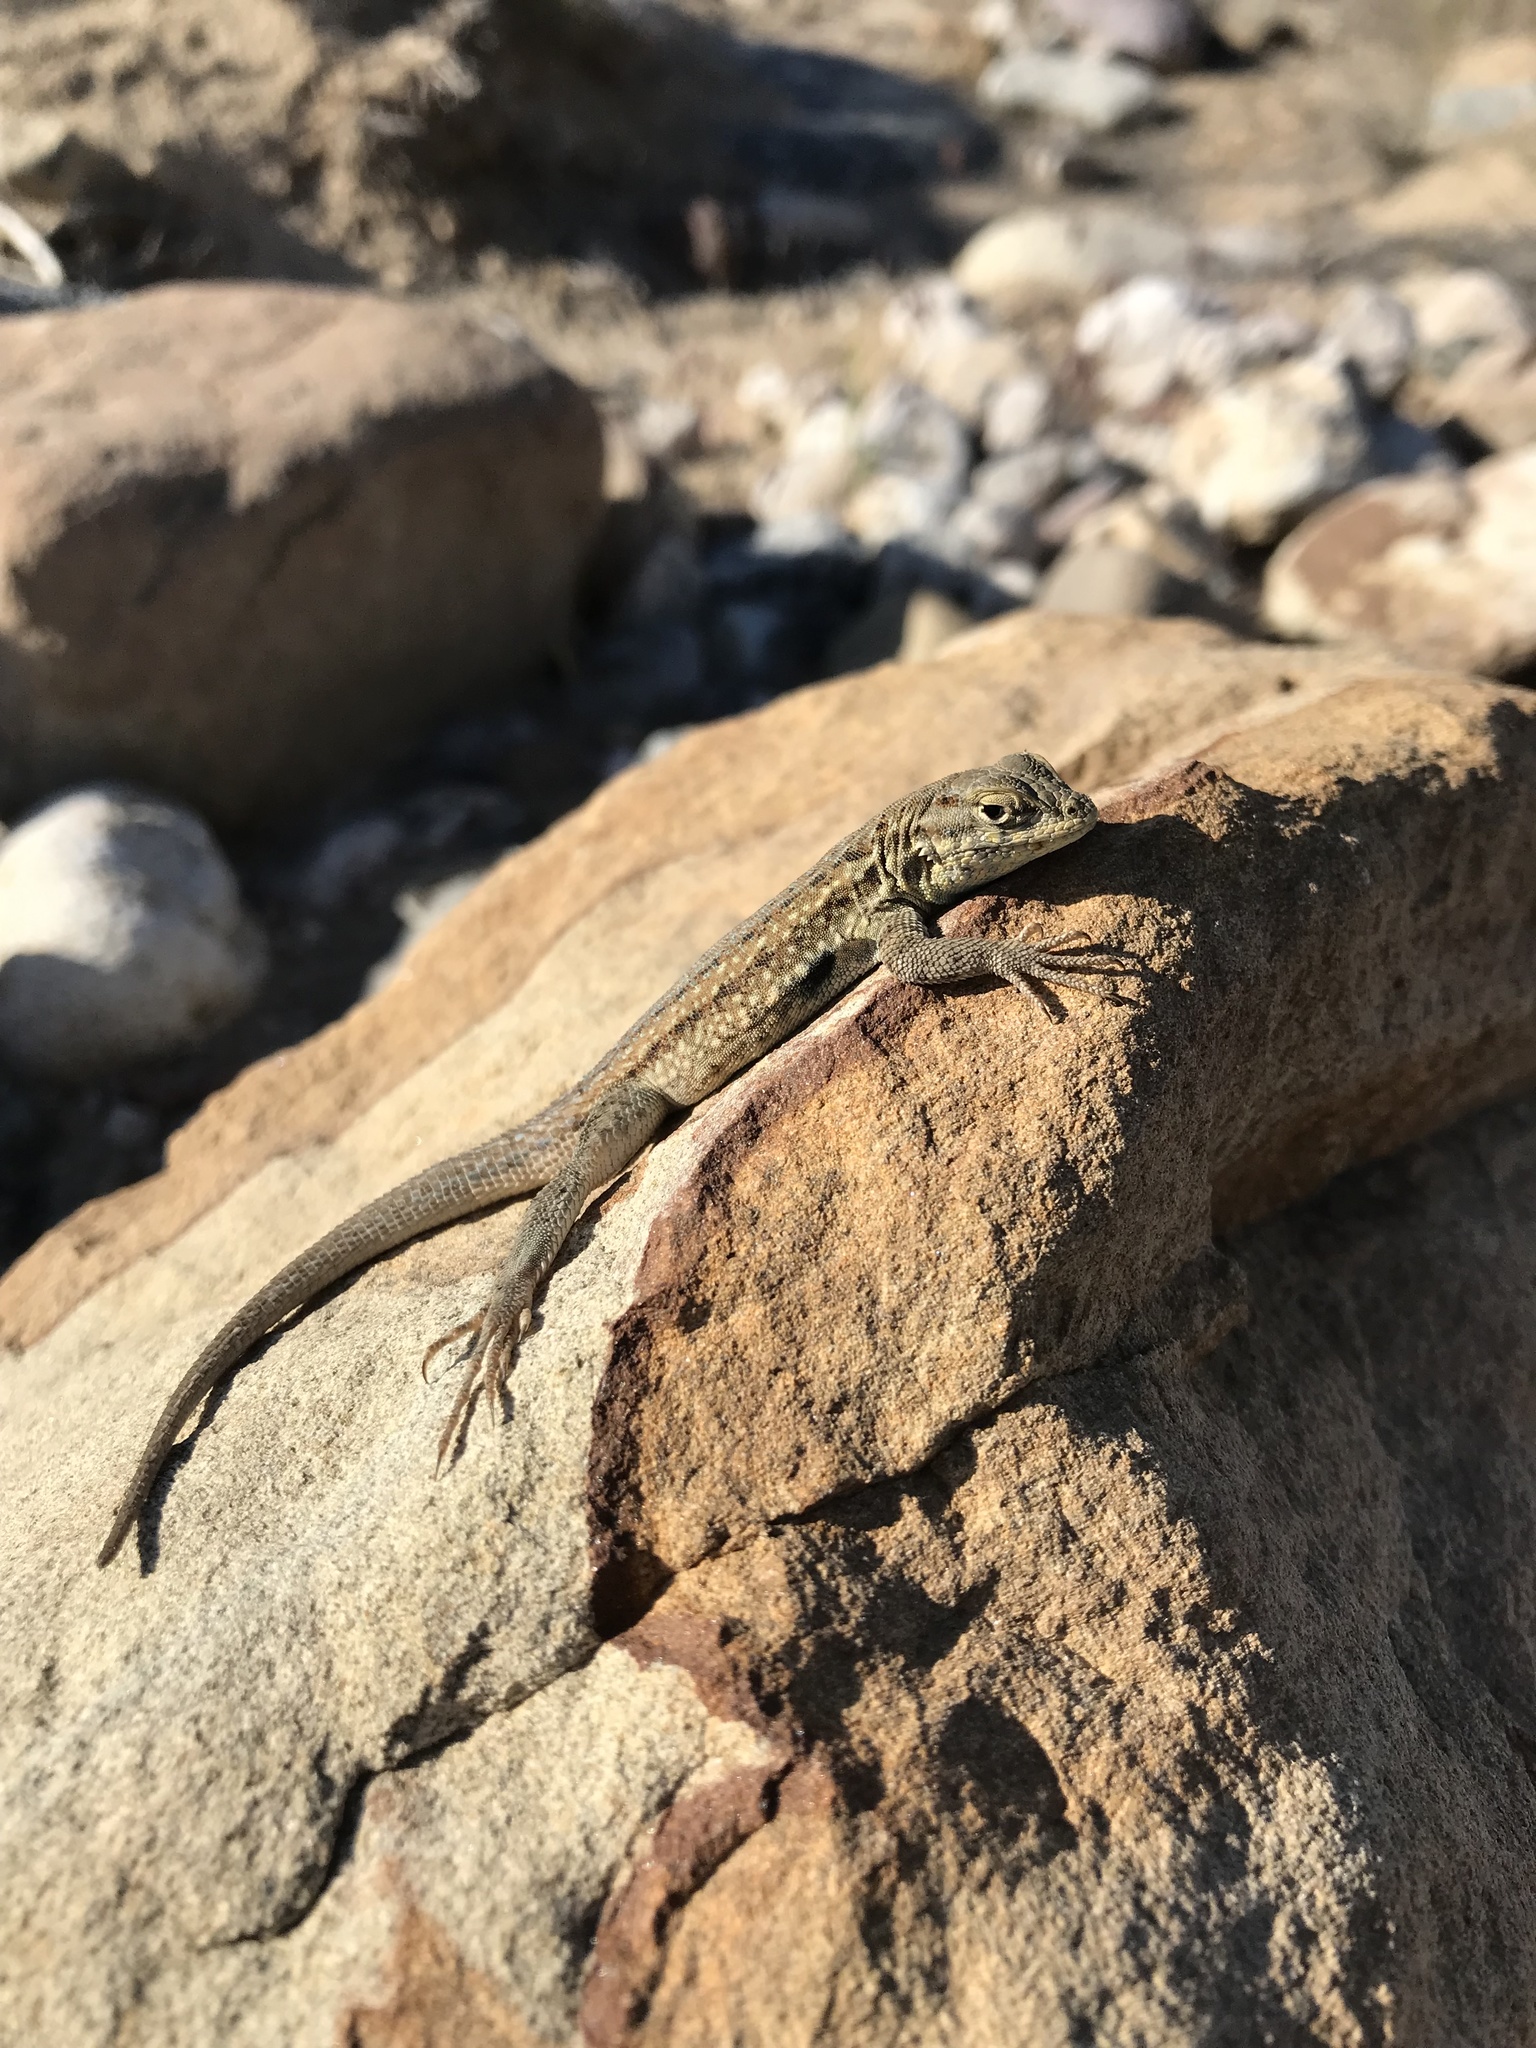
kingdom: Animalia
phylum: Chordata
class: Squamata
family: Phrynosomatidae
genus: Uta
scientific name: Uta stansburiana
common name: Side-blotched lizard
